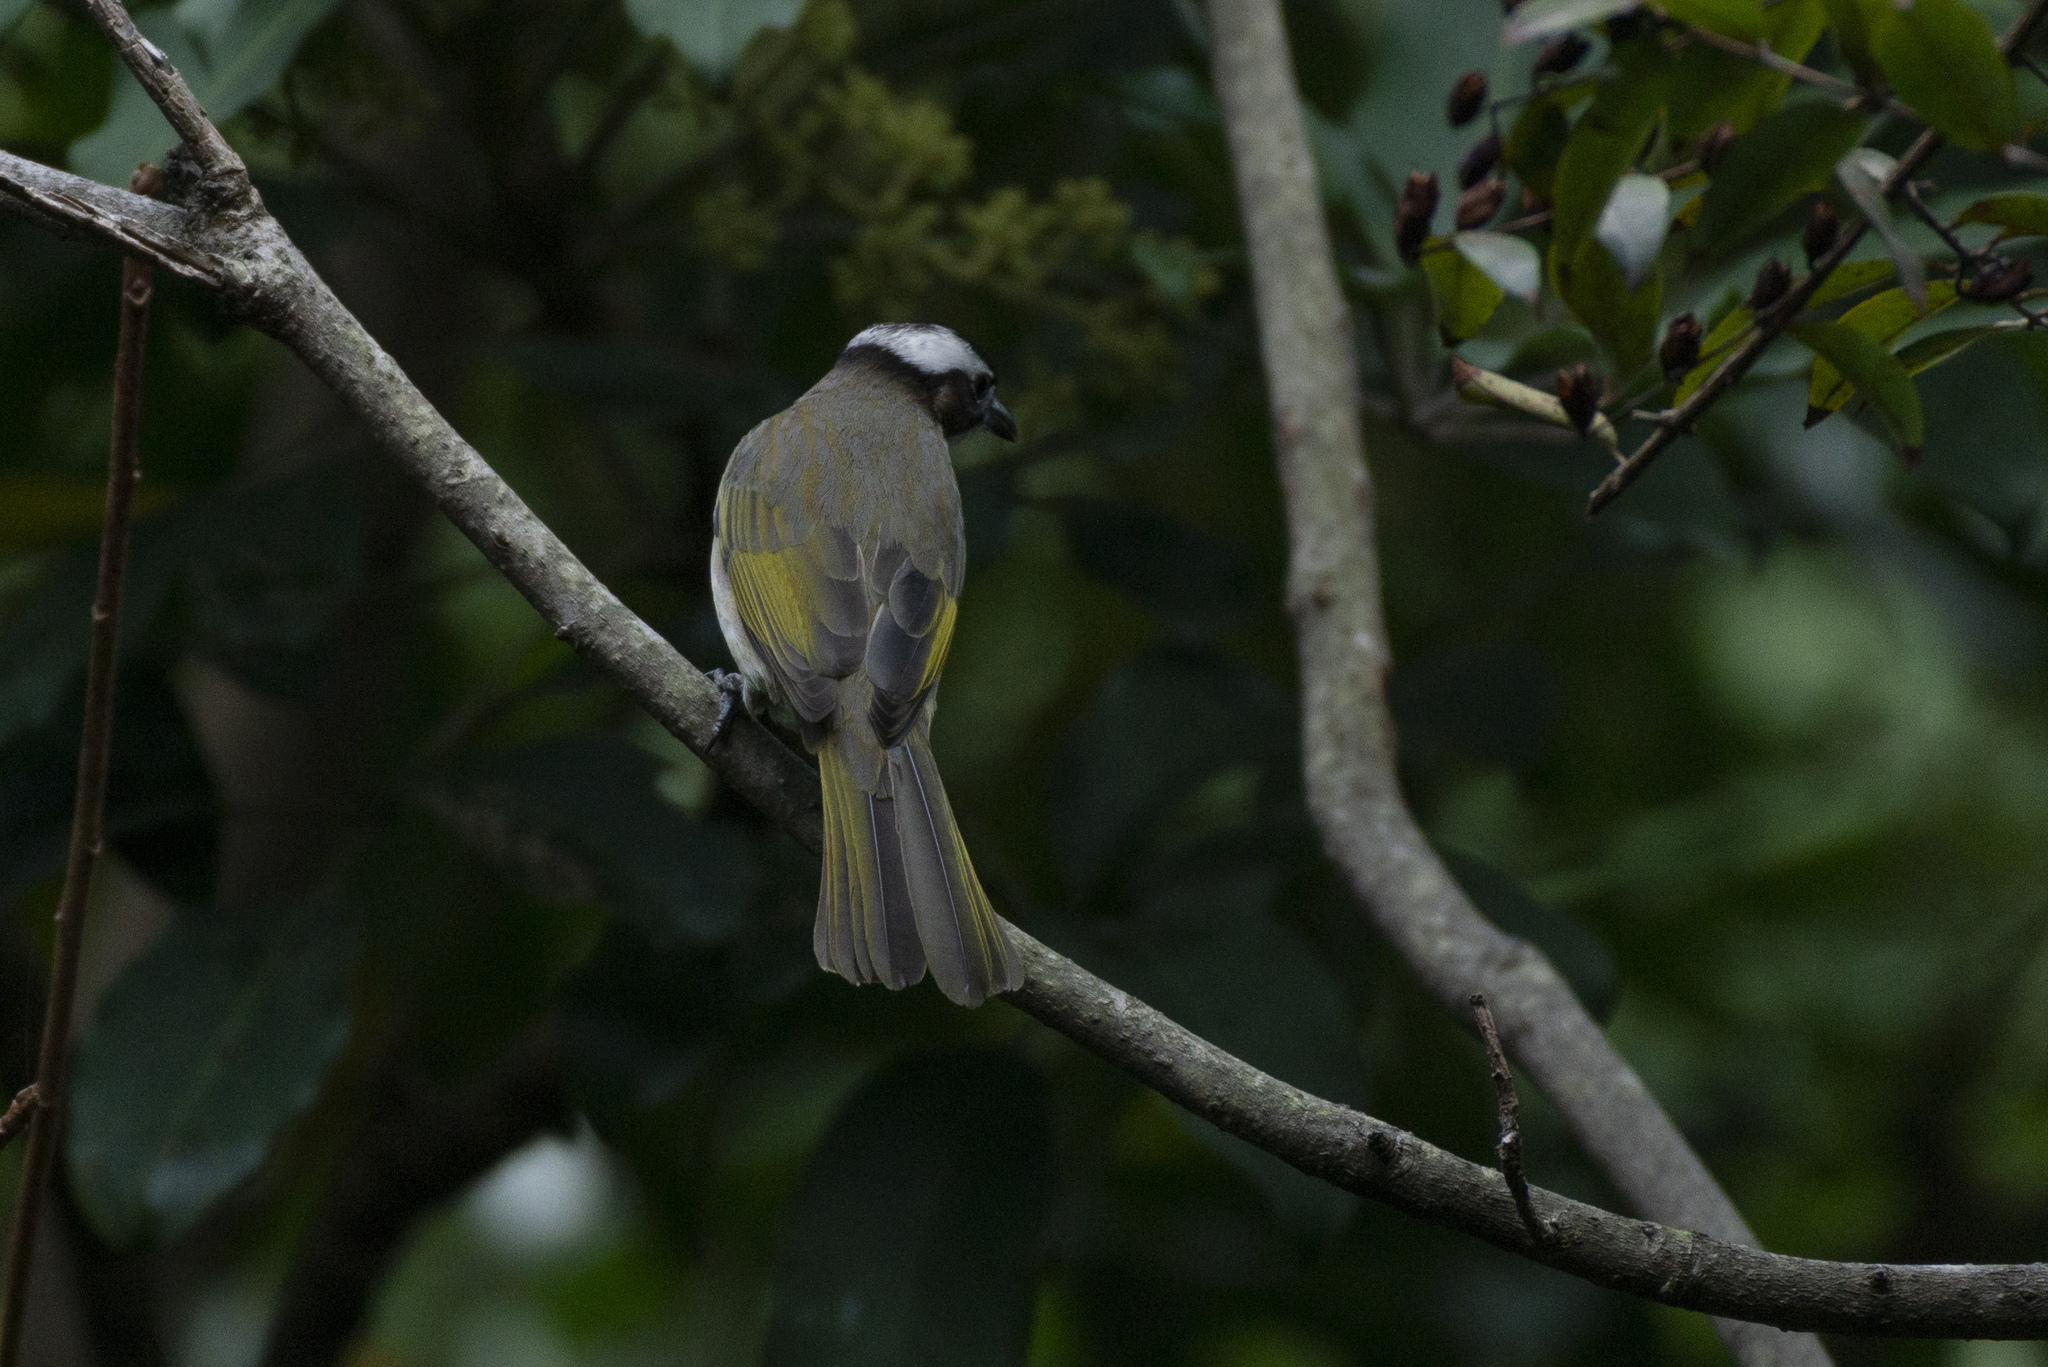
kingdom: Animalia
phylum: Chordata
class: Aves
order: Passeriformes
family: Pycnonotidae
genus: Pycnonotus
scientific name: Pycnonotus sinensis
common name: Light-vented bulbul
